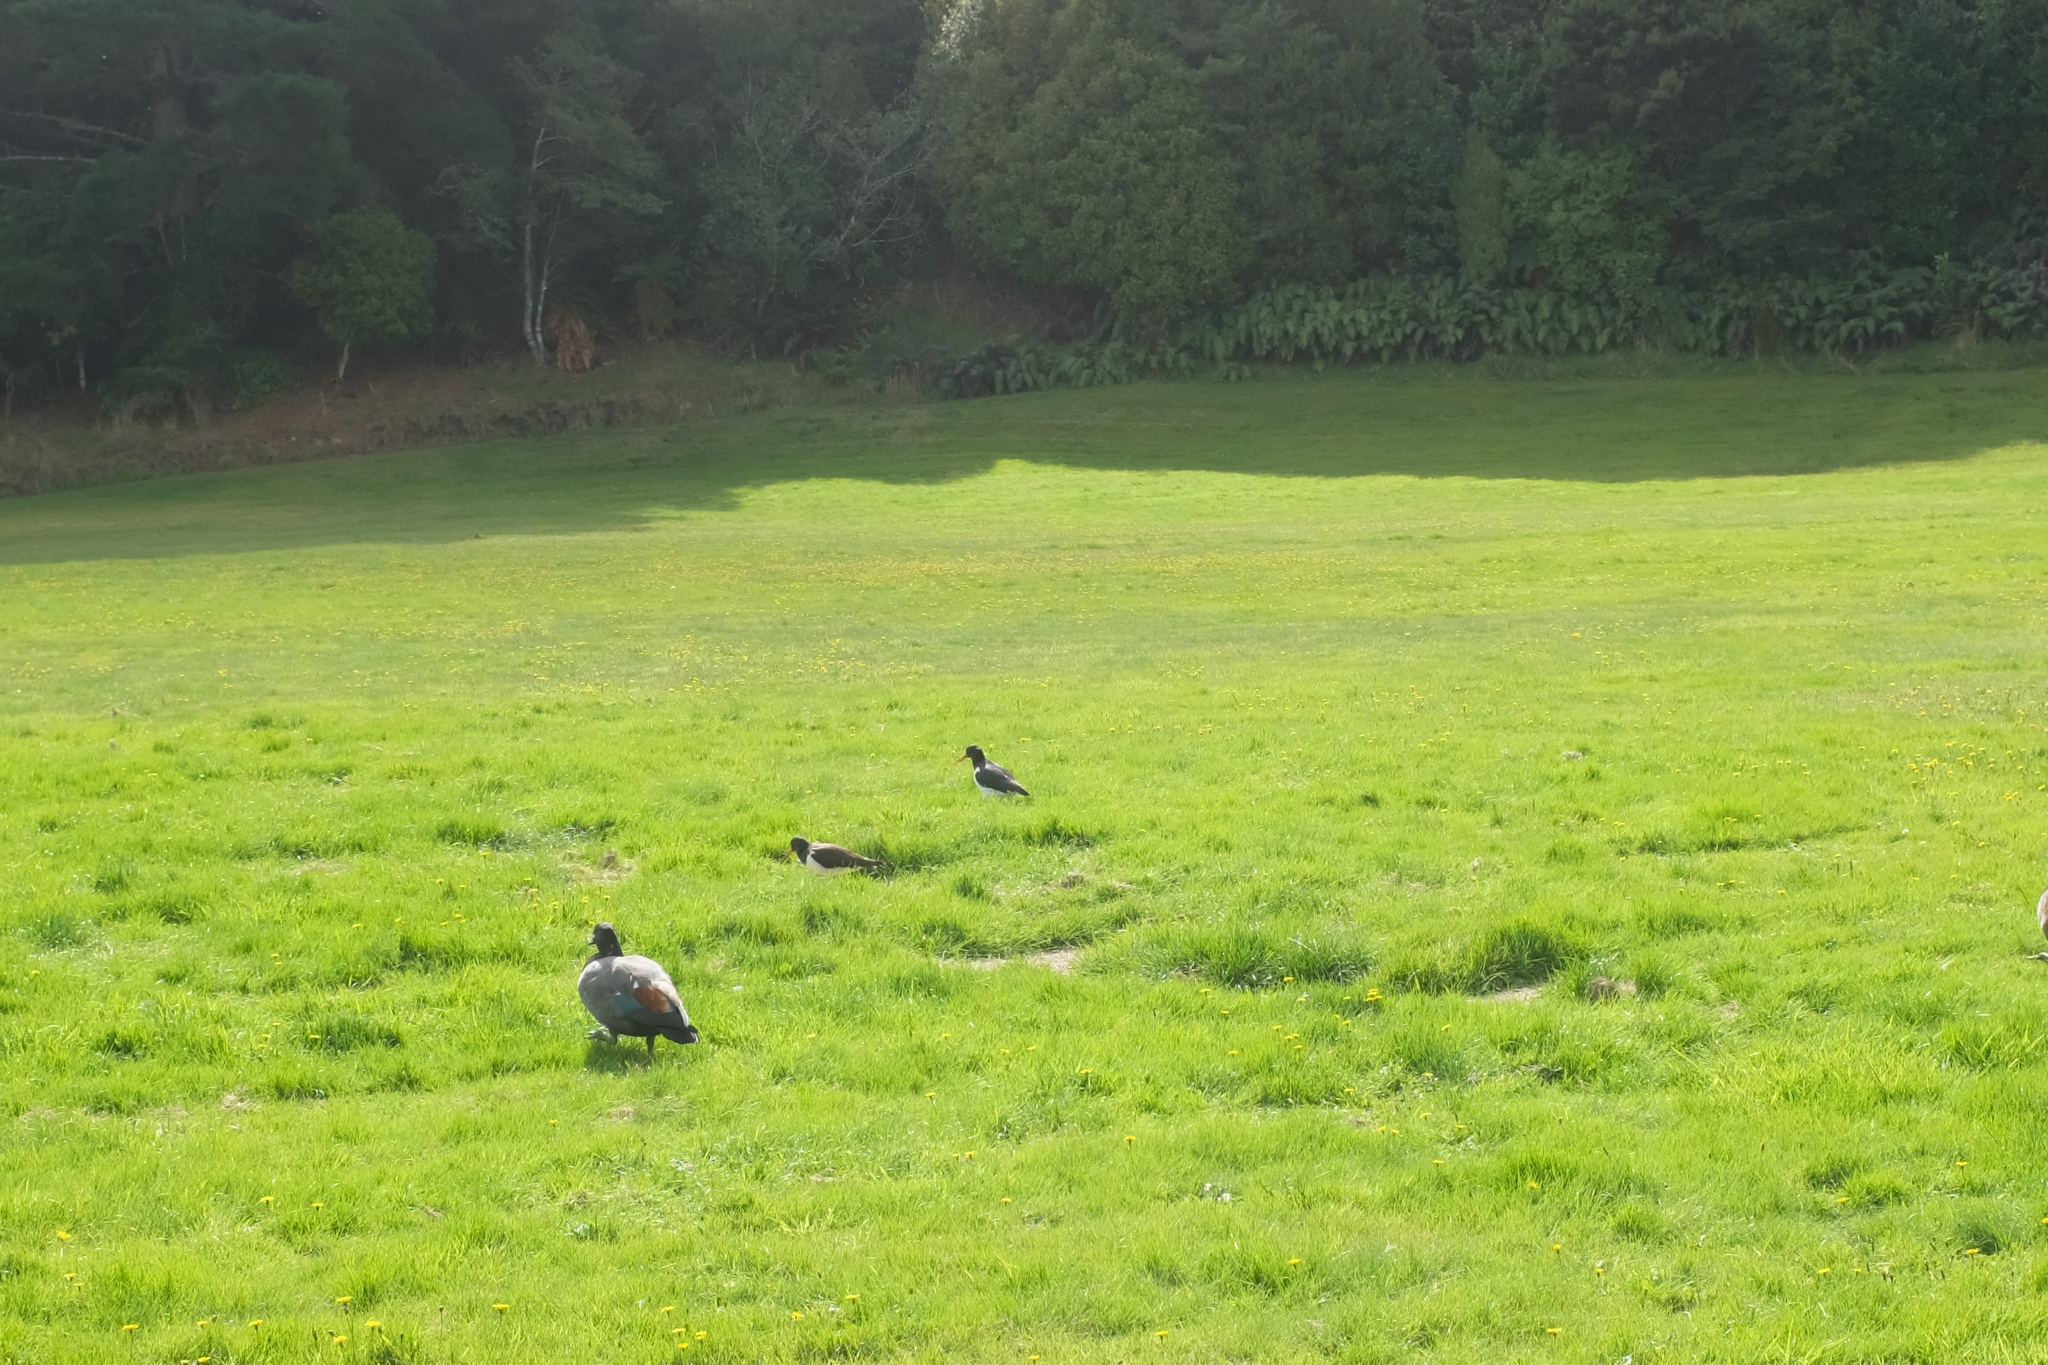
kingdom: Animalia
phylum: Chordata
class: Aves
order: Charadriiformes
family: Haematopodidae
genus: Haematopus
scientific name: Haematopus finschi
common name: South island oystercatcher
